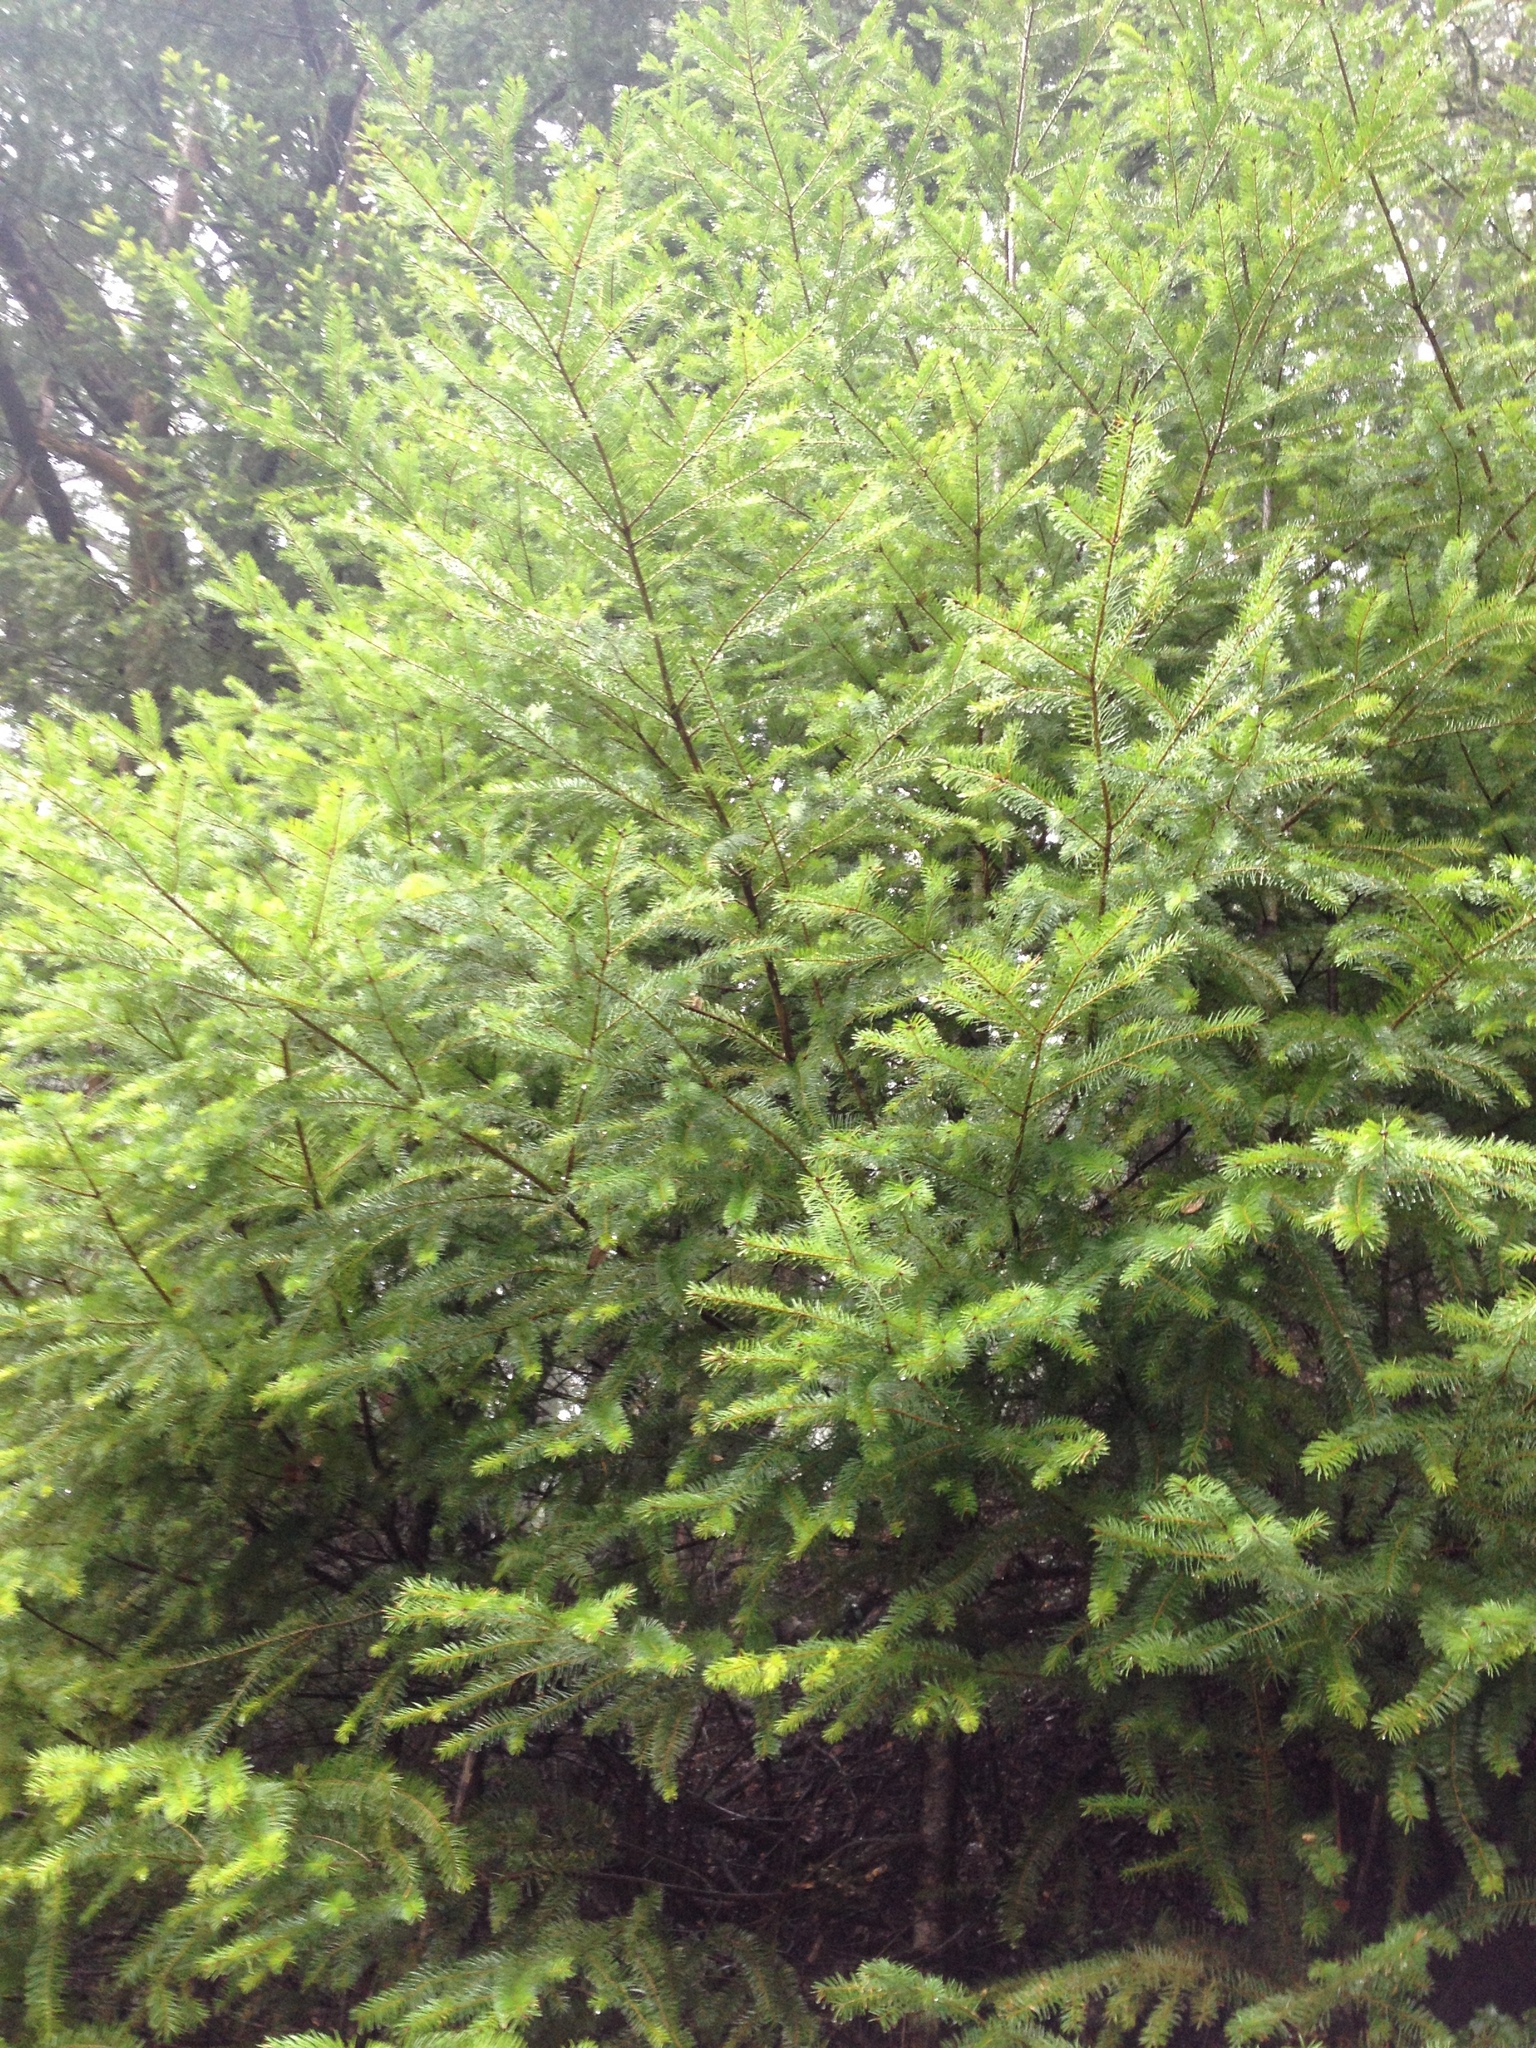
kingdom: Plantae
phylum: Tracheophyta
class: Pinopsida
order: Pinales
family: Pinaceae
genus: Pseudotsuga
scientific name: Pseudotsuga menziesii
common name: Douglas fir
